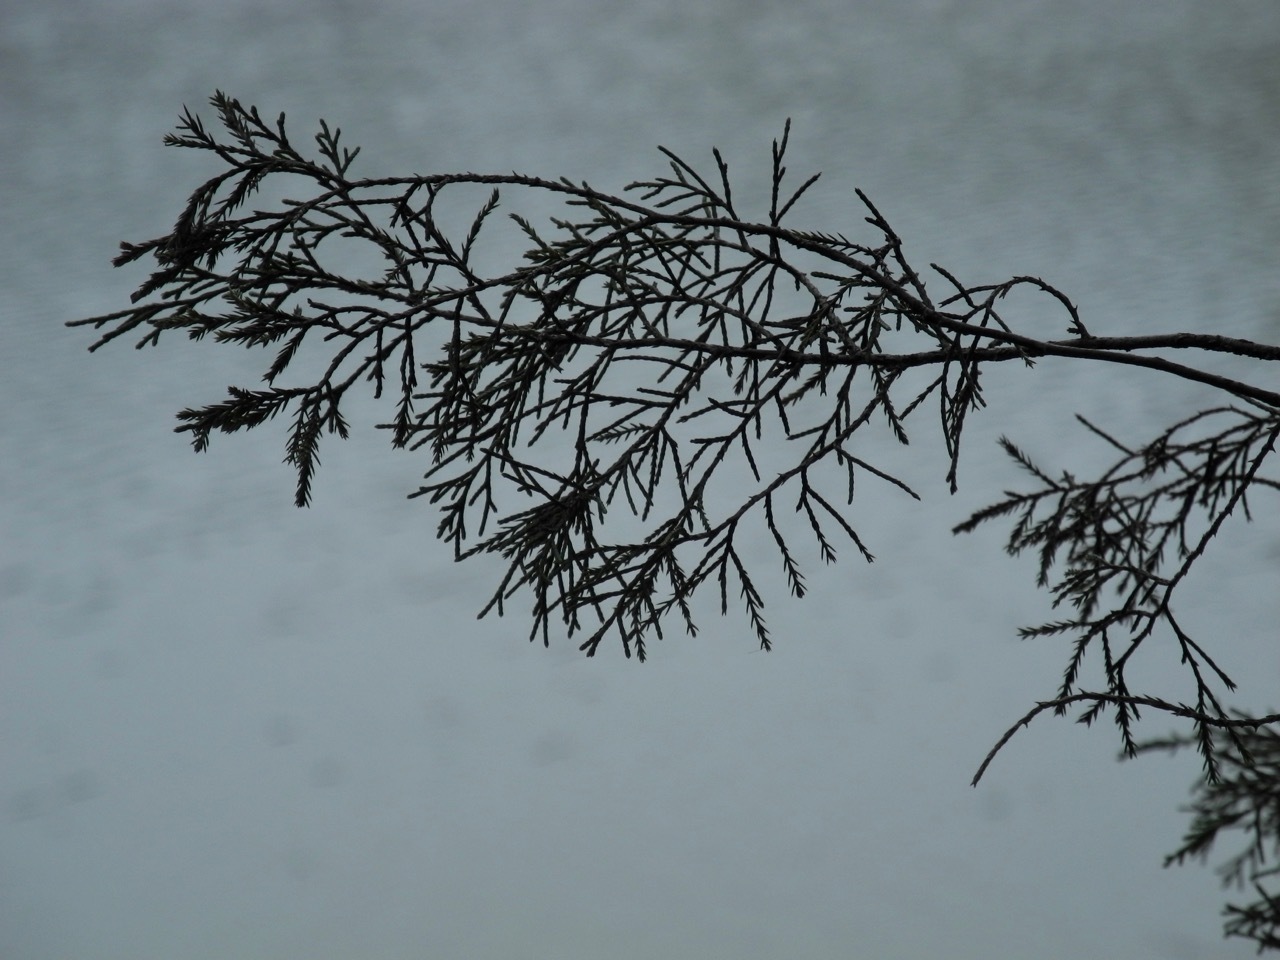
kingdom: Plantae
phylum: Tracheophyta
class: Pinopsida
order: Pinales
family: Cupressaceae
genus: Juniperus
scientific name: Juniperus virginiana
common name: Red juniper
